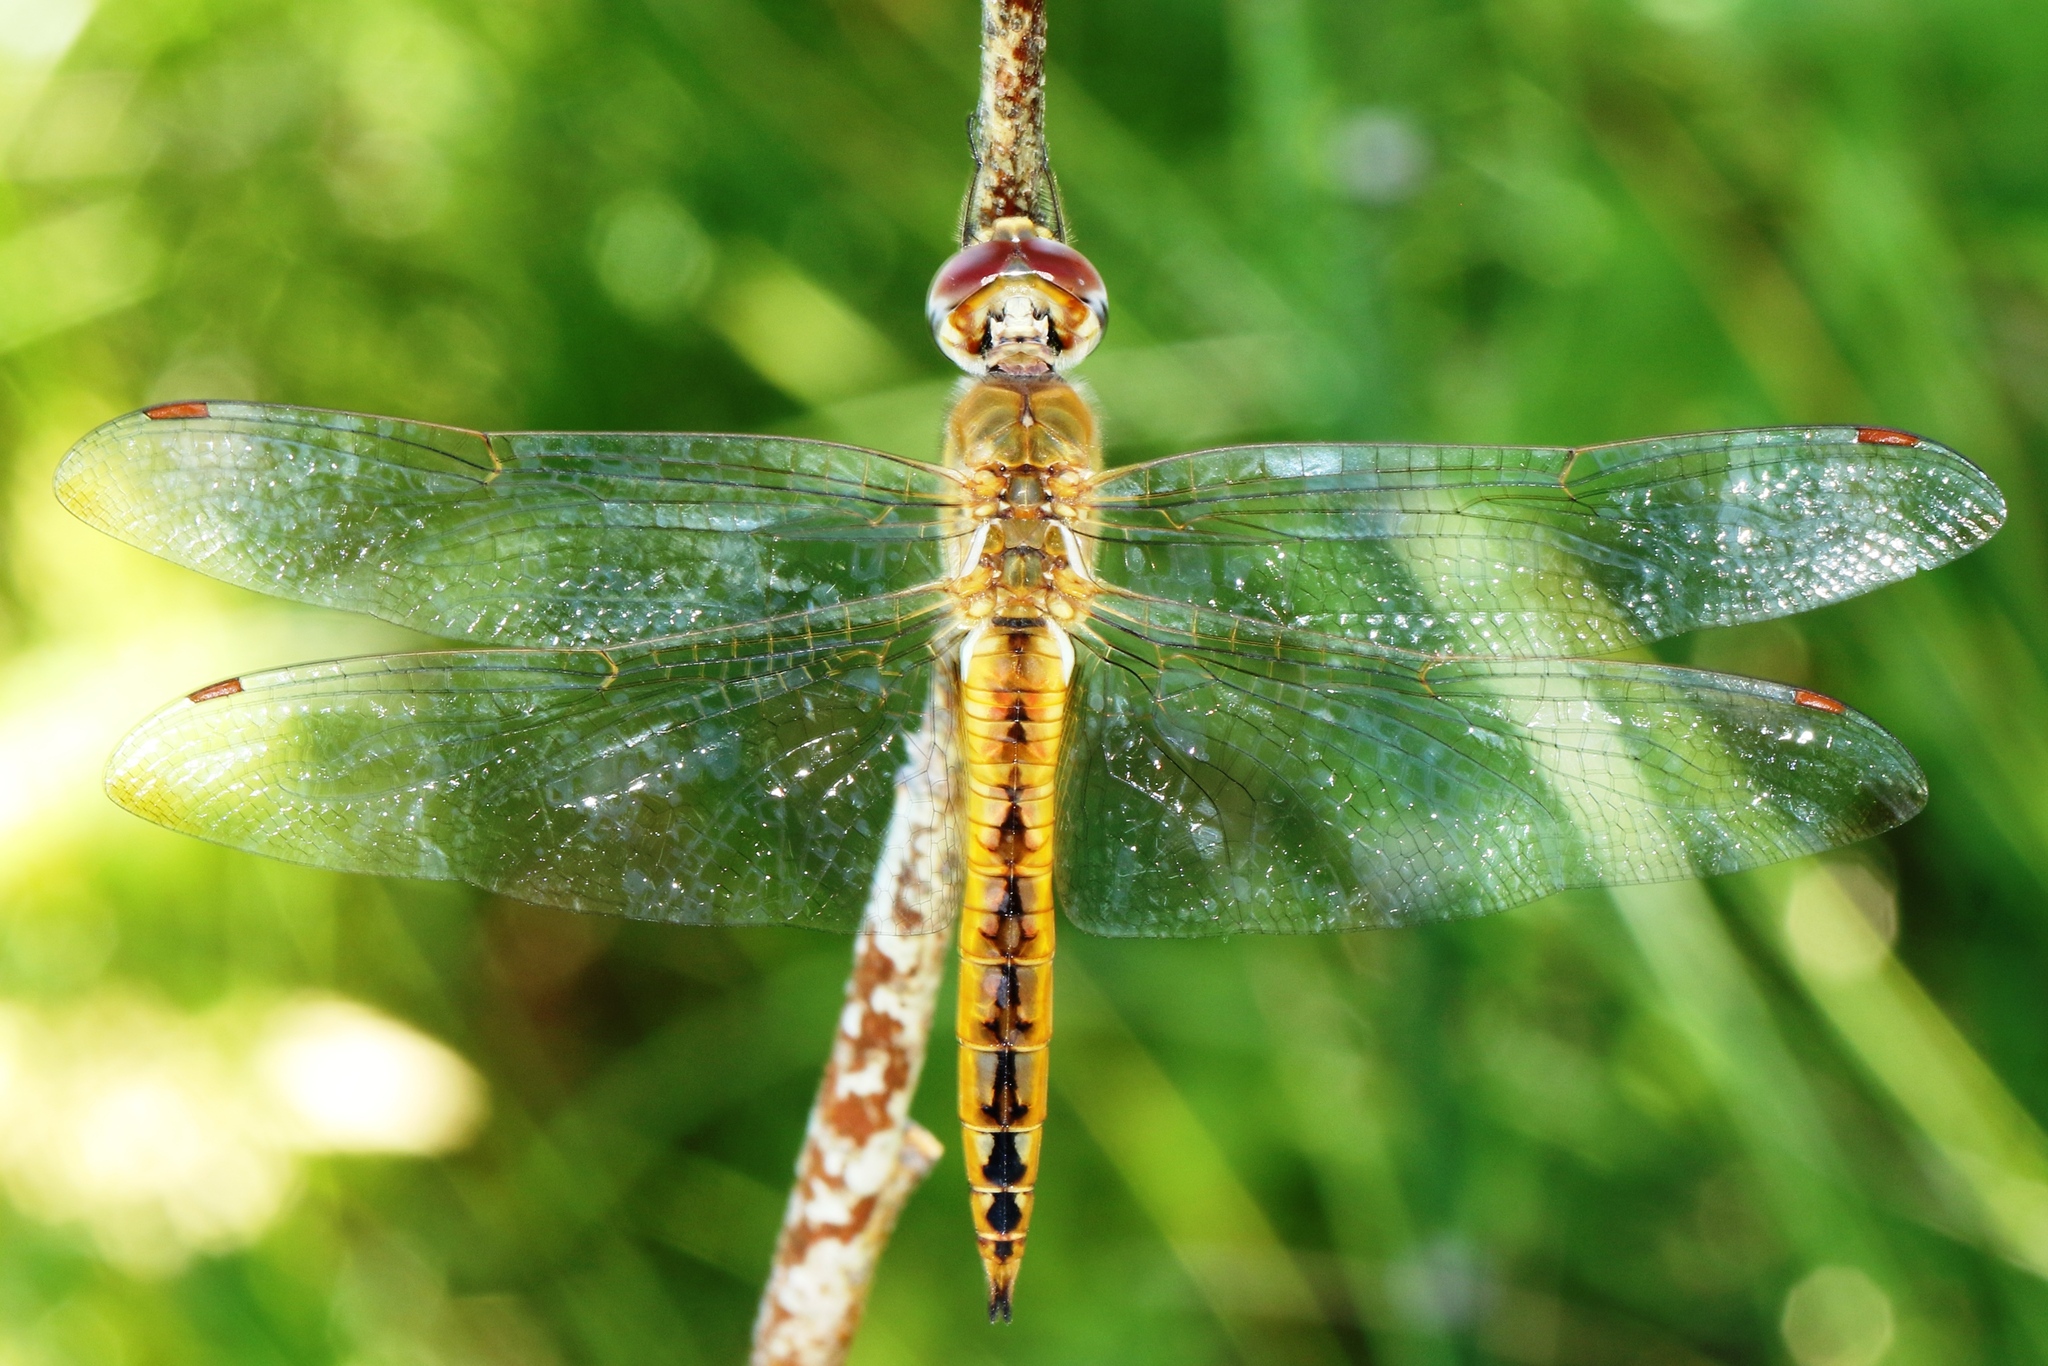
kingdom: Animalia
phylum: Arthropoda
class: Insecta
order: Odonata
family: Libellulidae
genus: Pantala
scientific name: Pantala flavescens
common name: Wandering glider
